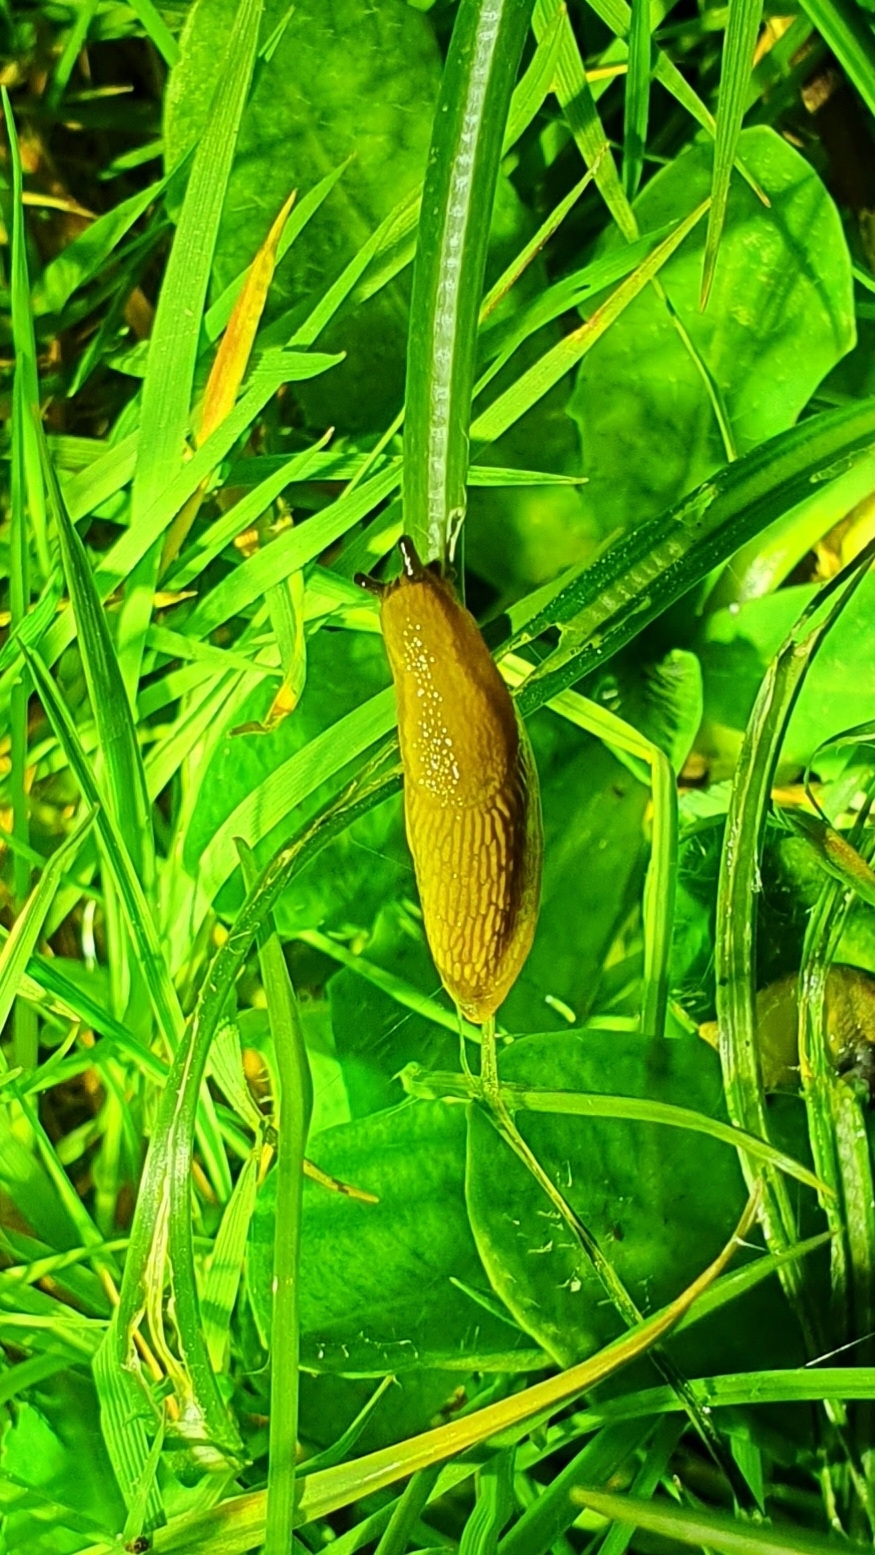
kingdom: Animalia
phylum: Mollusca
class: Gastropoda
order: Stylommatophora
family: Arionidae
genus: Arion
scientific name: Arion vulgaris
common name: Lusitanian slug
